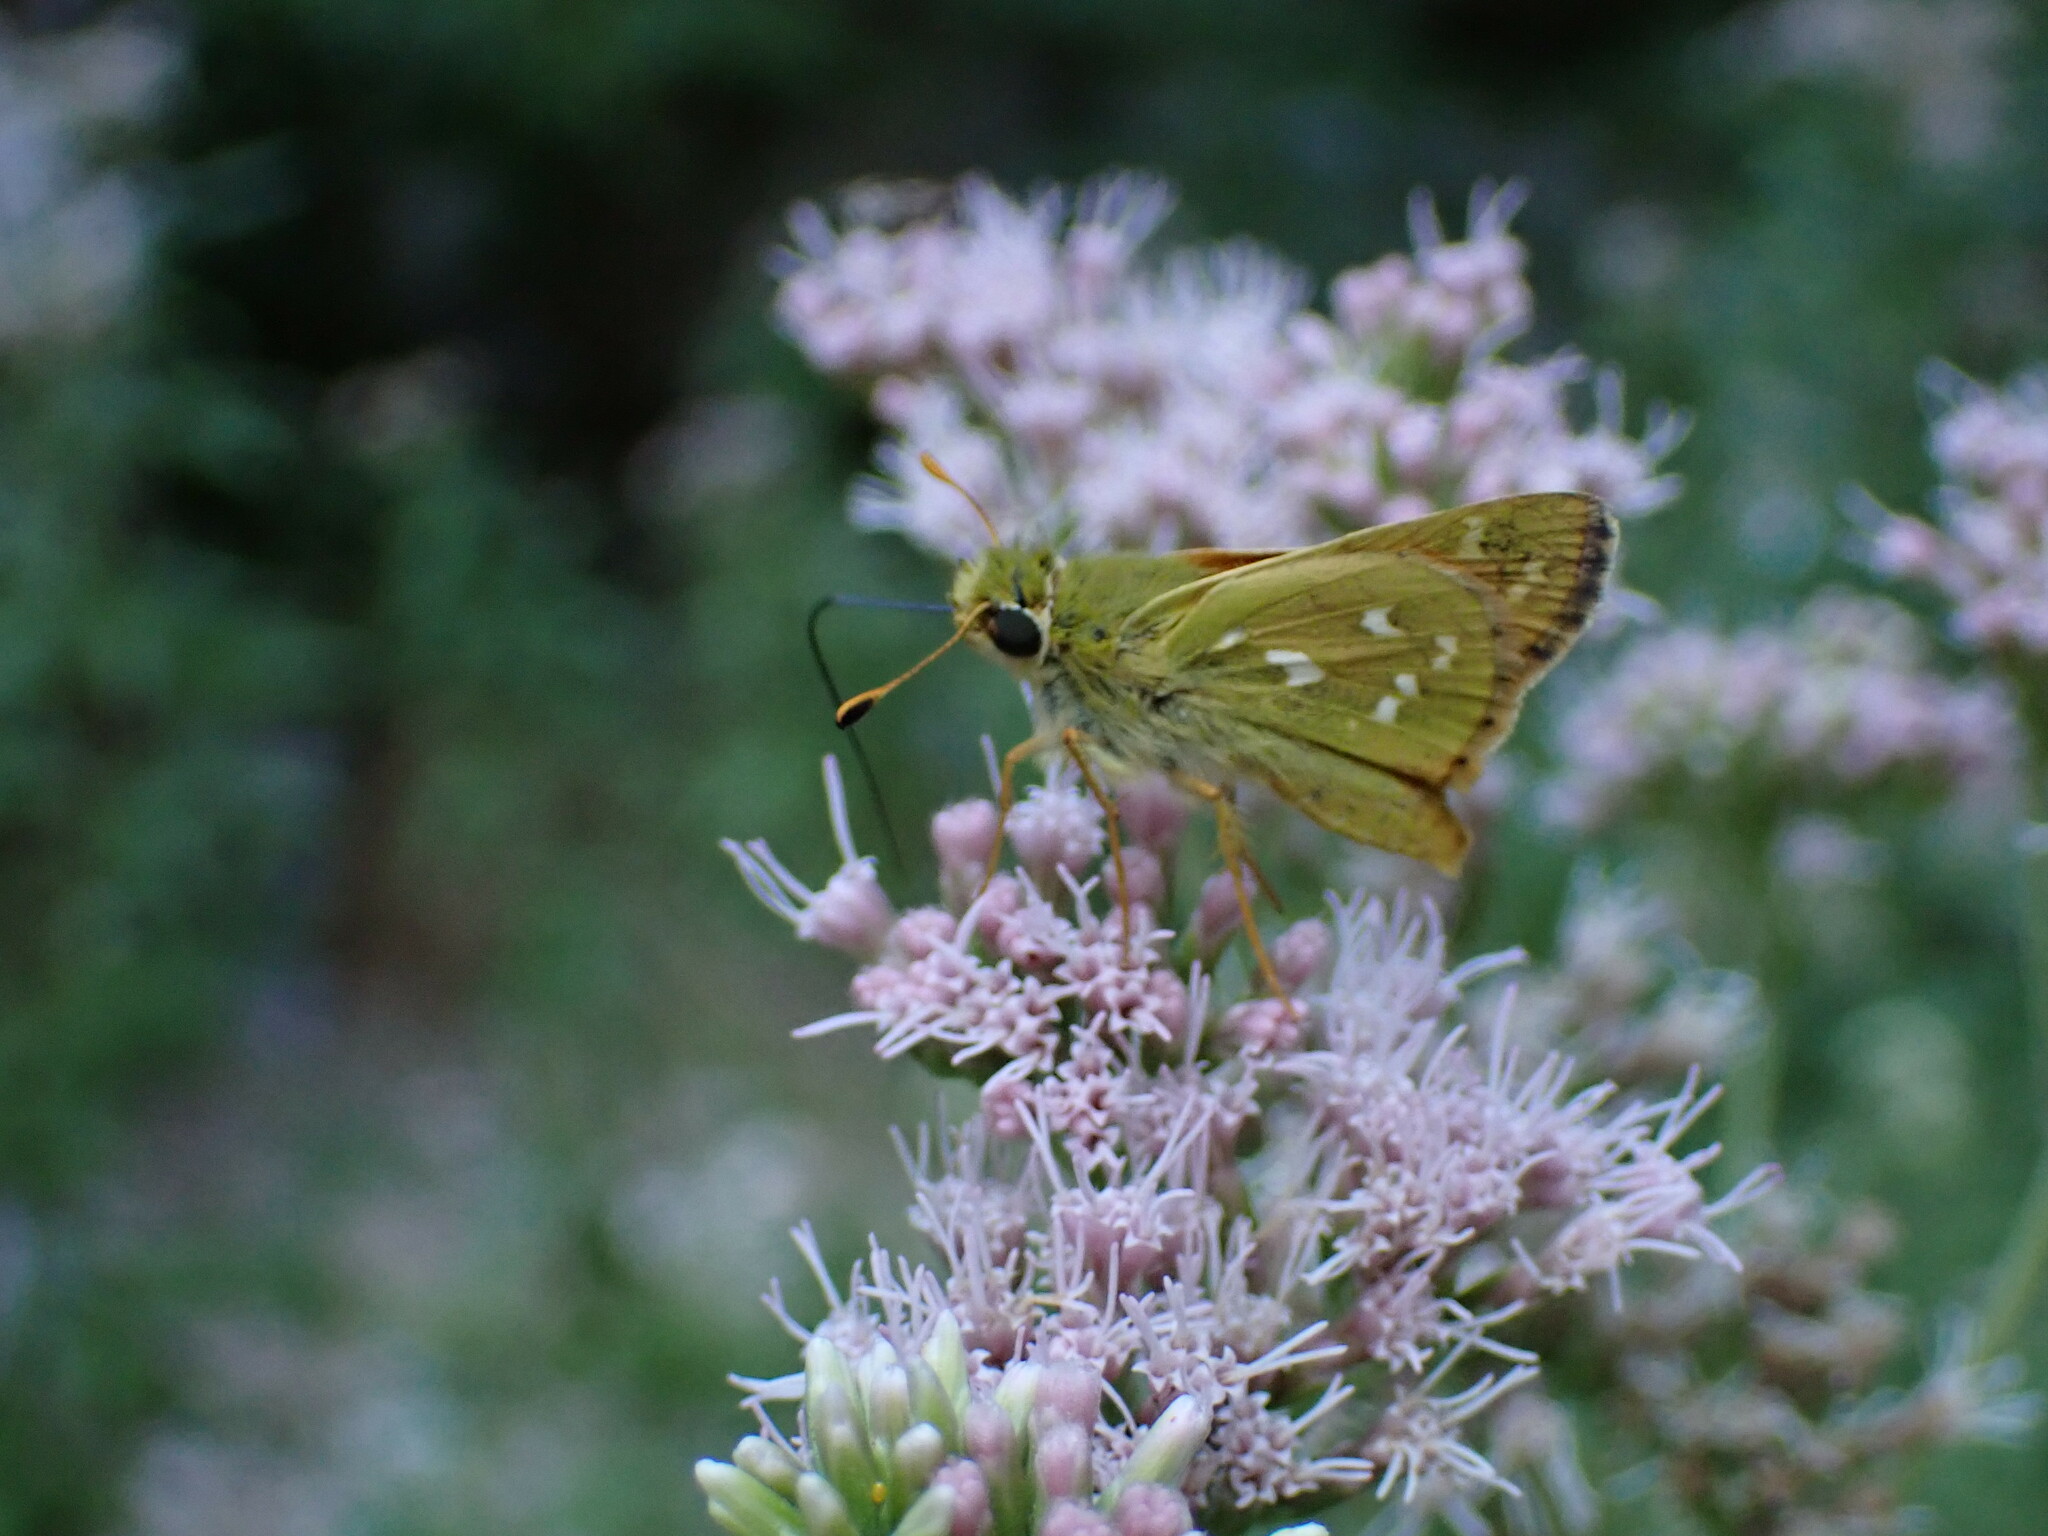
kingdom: Animalia
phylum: Arthropoda
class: Insecta
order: Lepidoptera
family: Hesperiidae
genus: Hesperia
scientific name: Hesperia comma
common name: Common branded skipper
